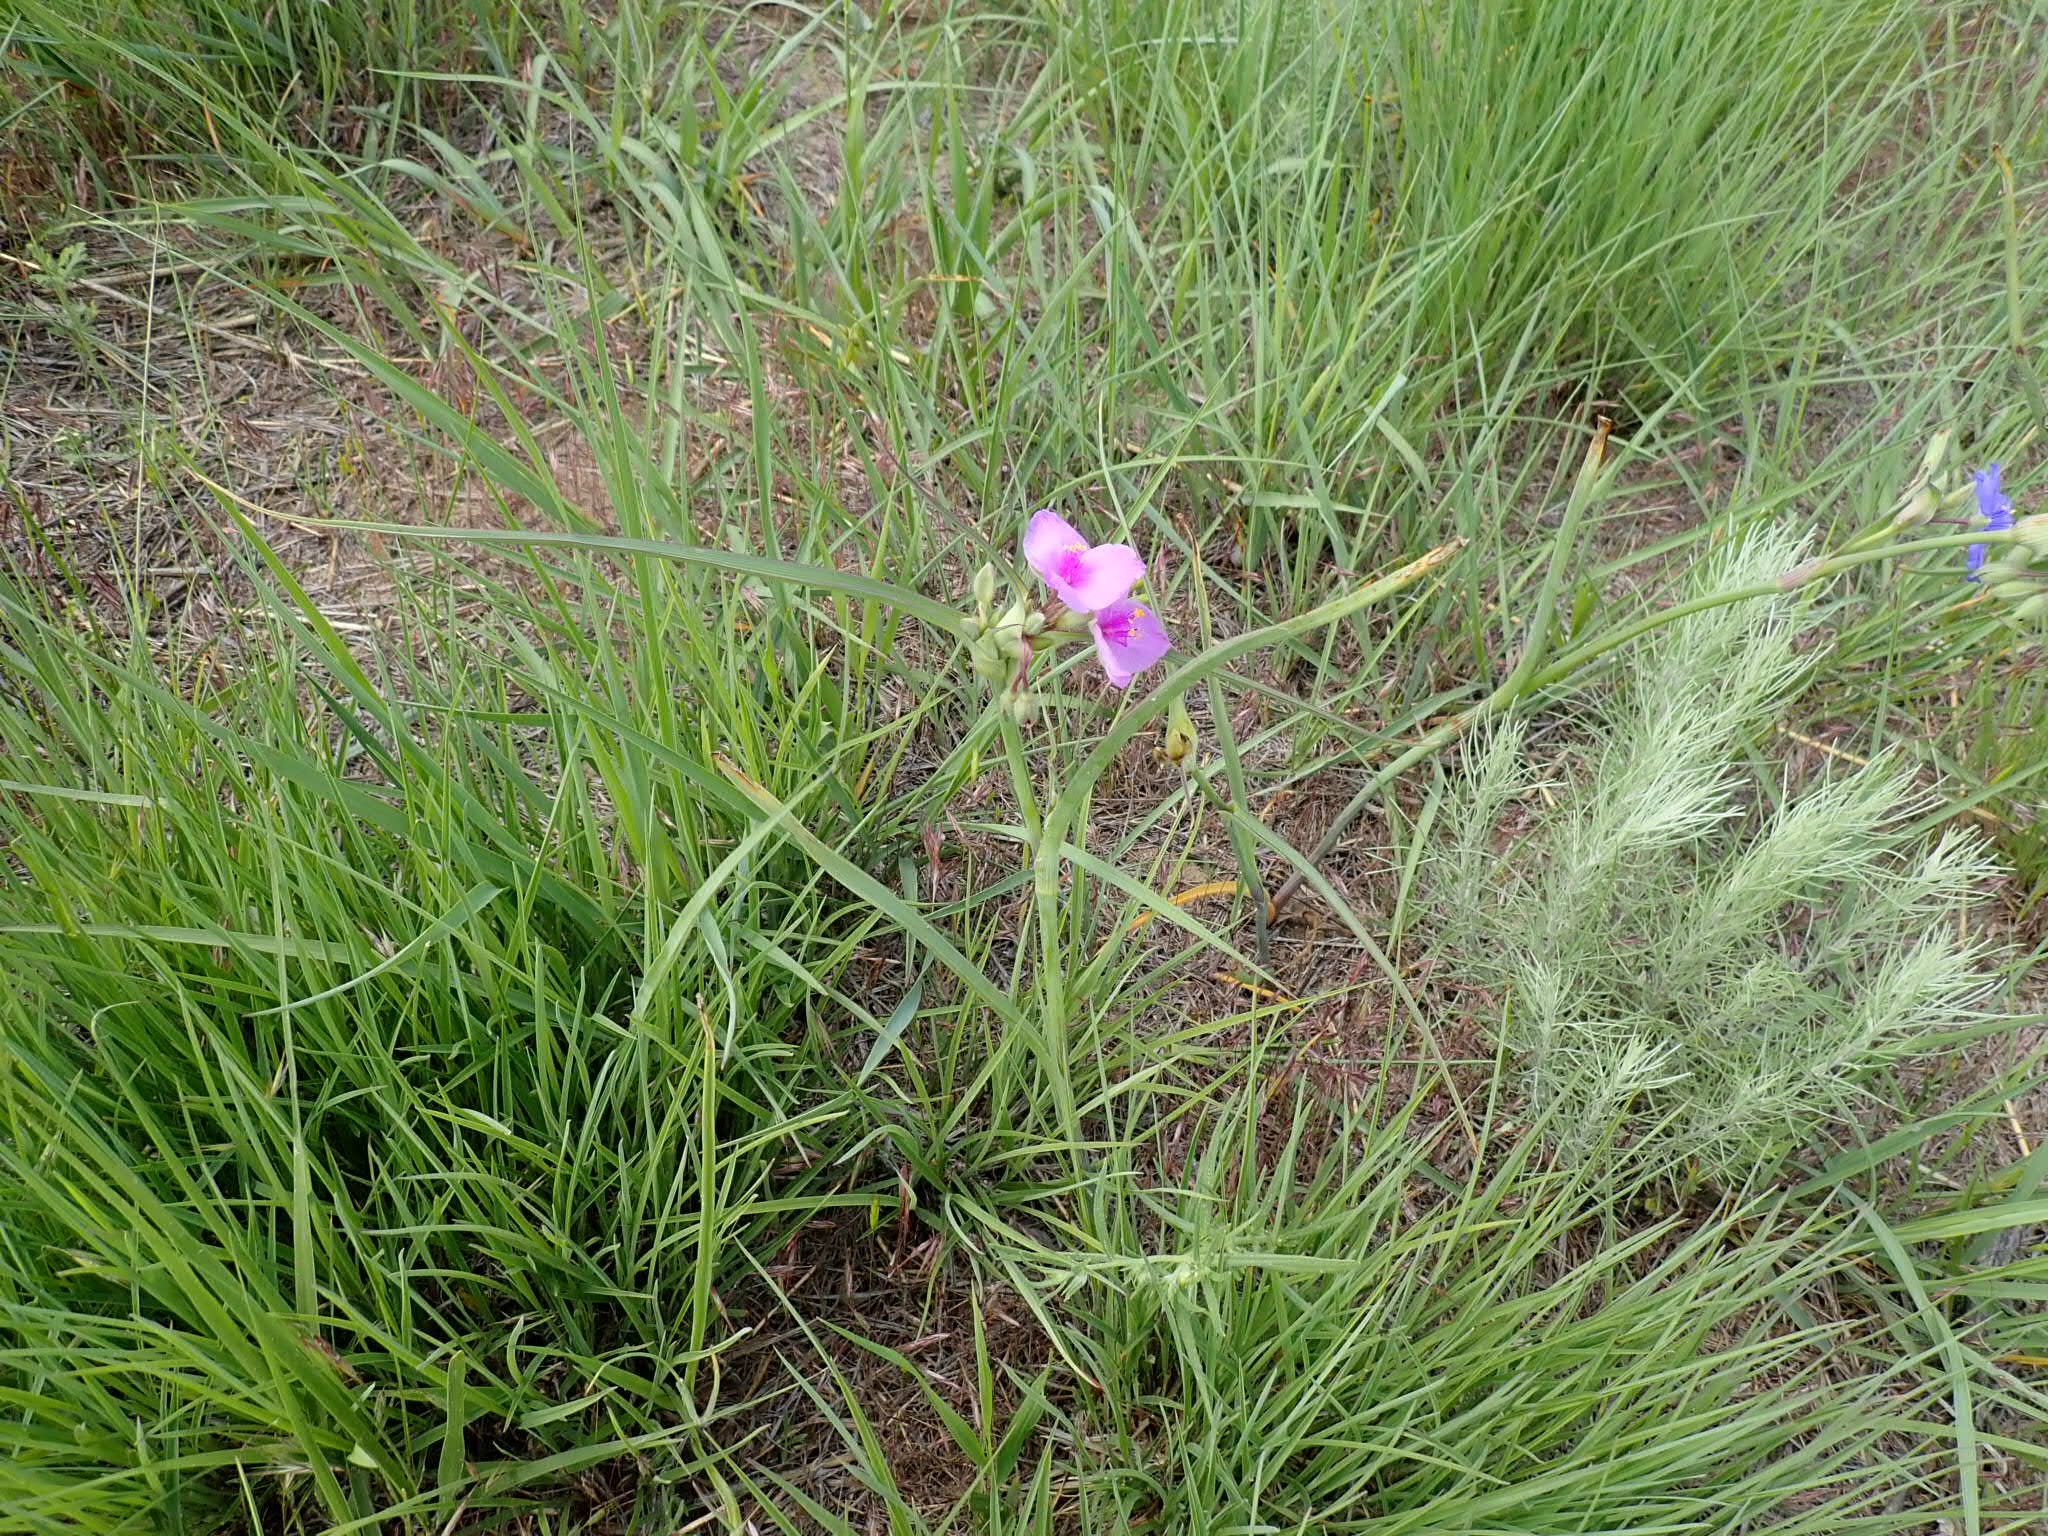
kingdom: Plantae
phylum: Tracheophyta
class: Liliopsida
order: Commelinales
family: Commelinaceae
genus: Tradescantia
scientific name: Tradescantia occidentalis
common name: Prairie spiderwort
